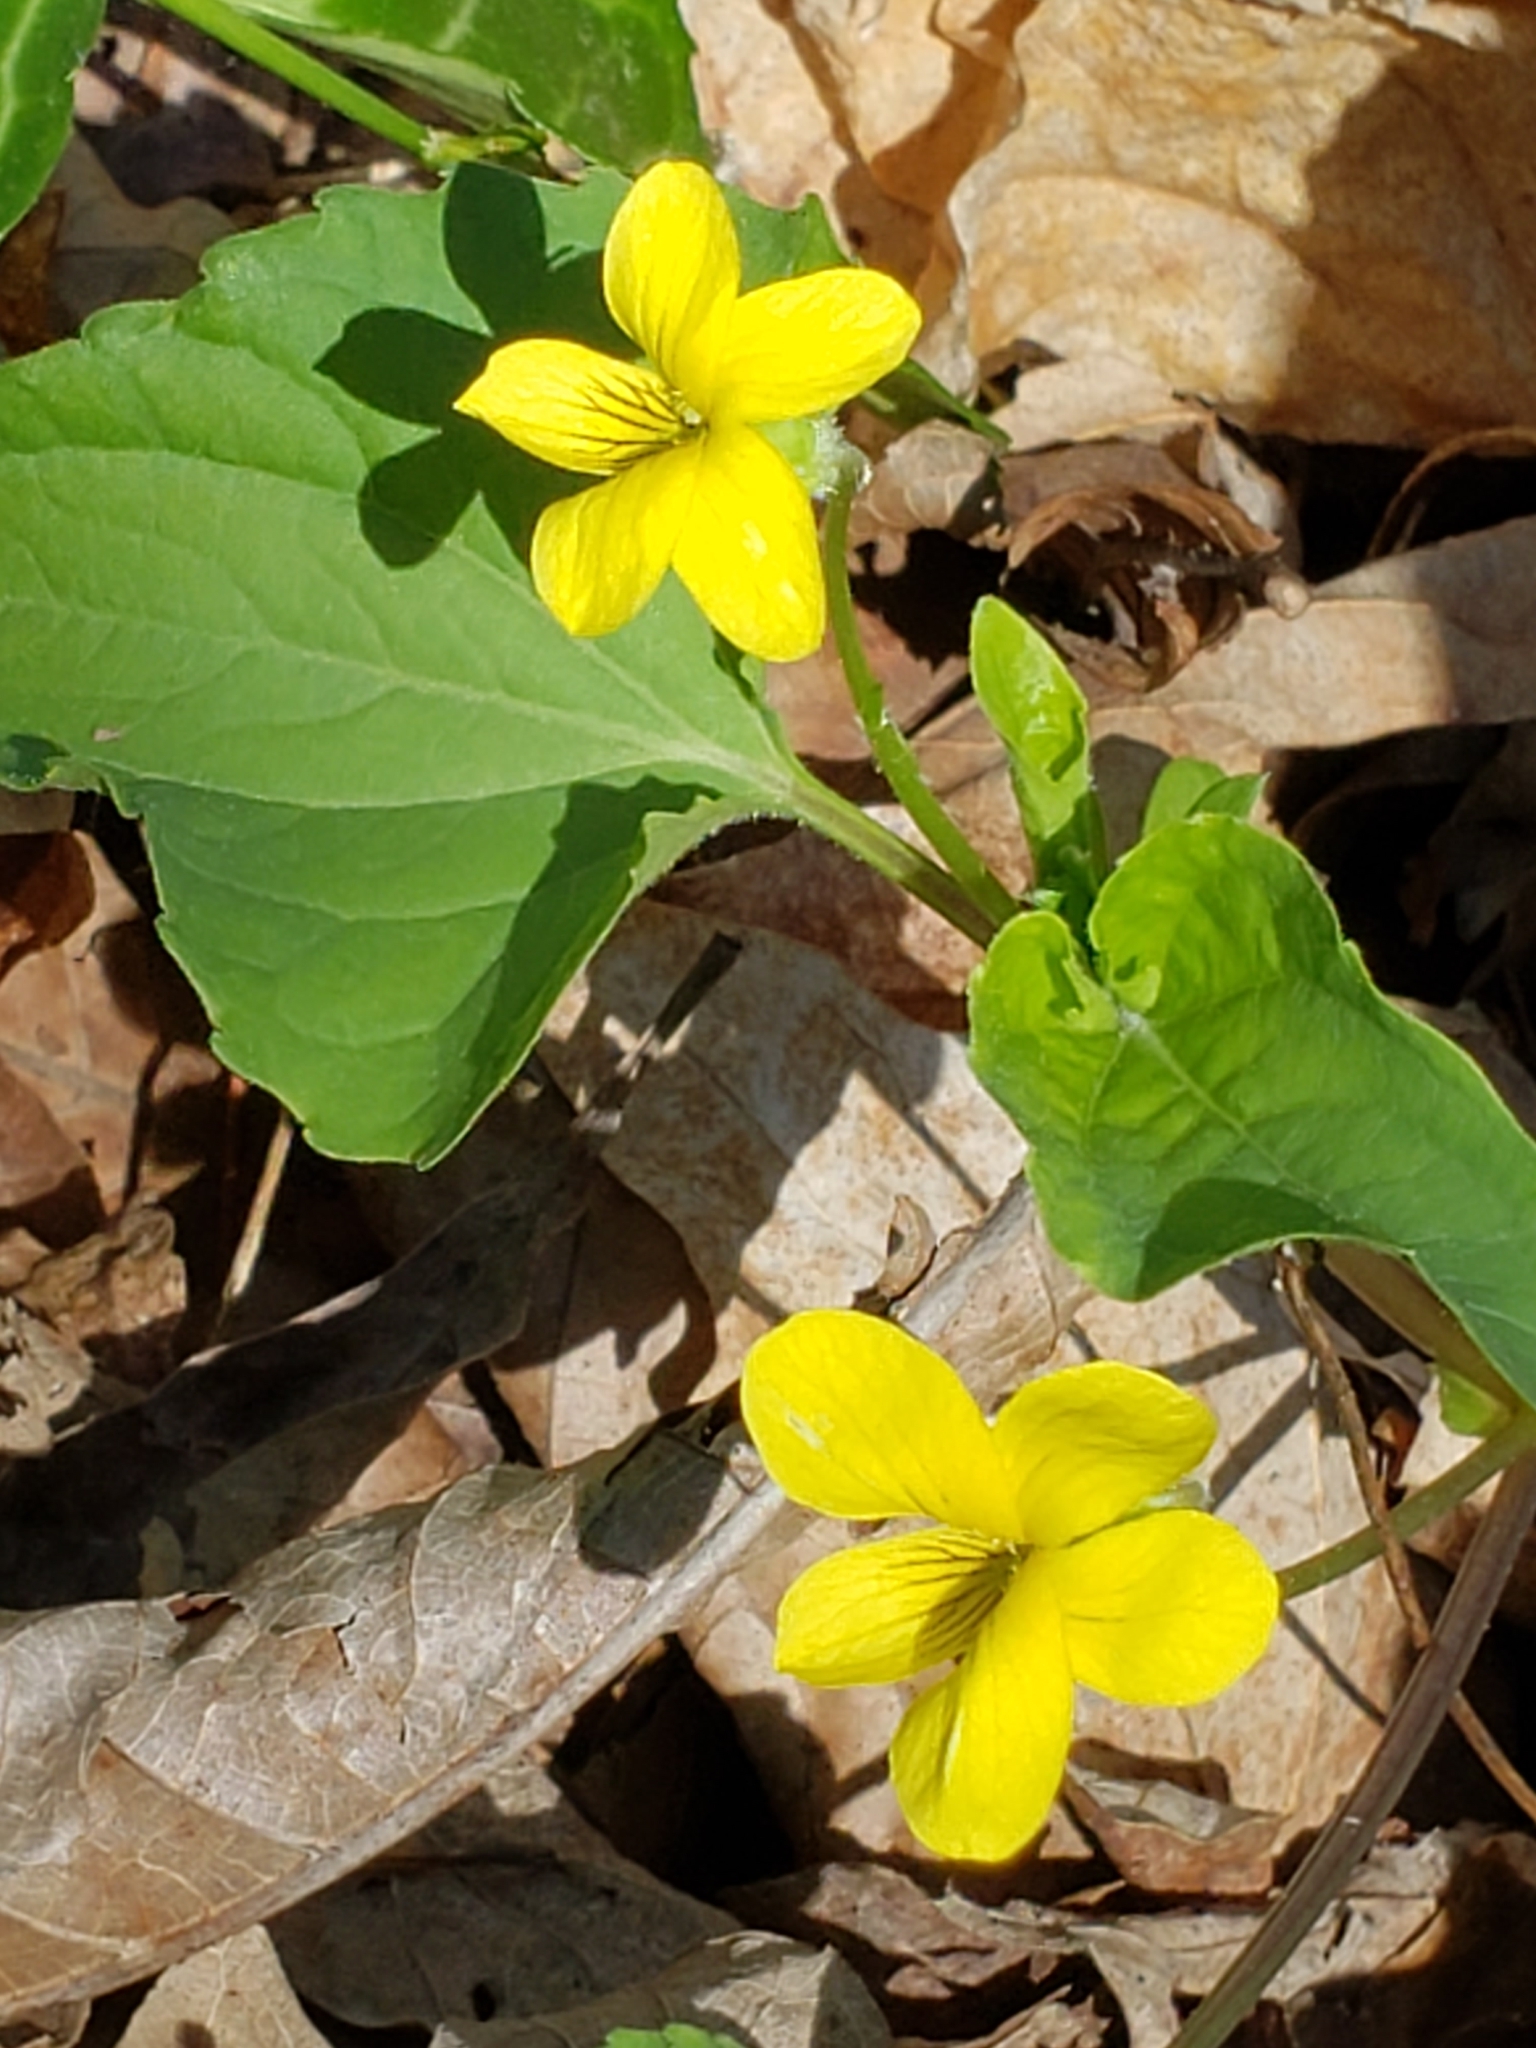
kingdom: Plantae
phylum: Tracheophyta
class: Magnoliopsida
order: Malpighiales
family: Violaceae
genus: Viola
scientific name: Viola eriocarpa
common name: Smooth yellow violet
